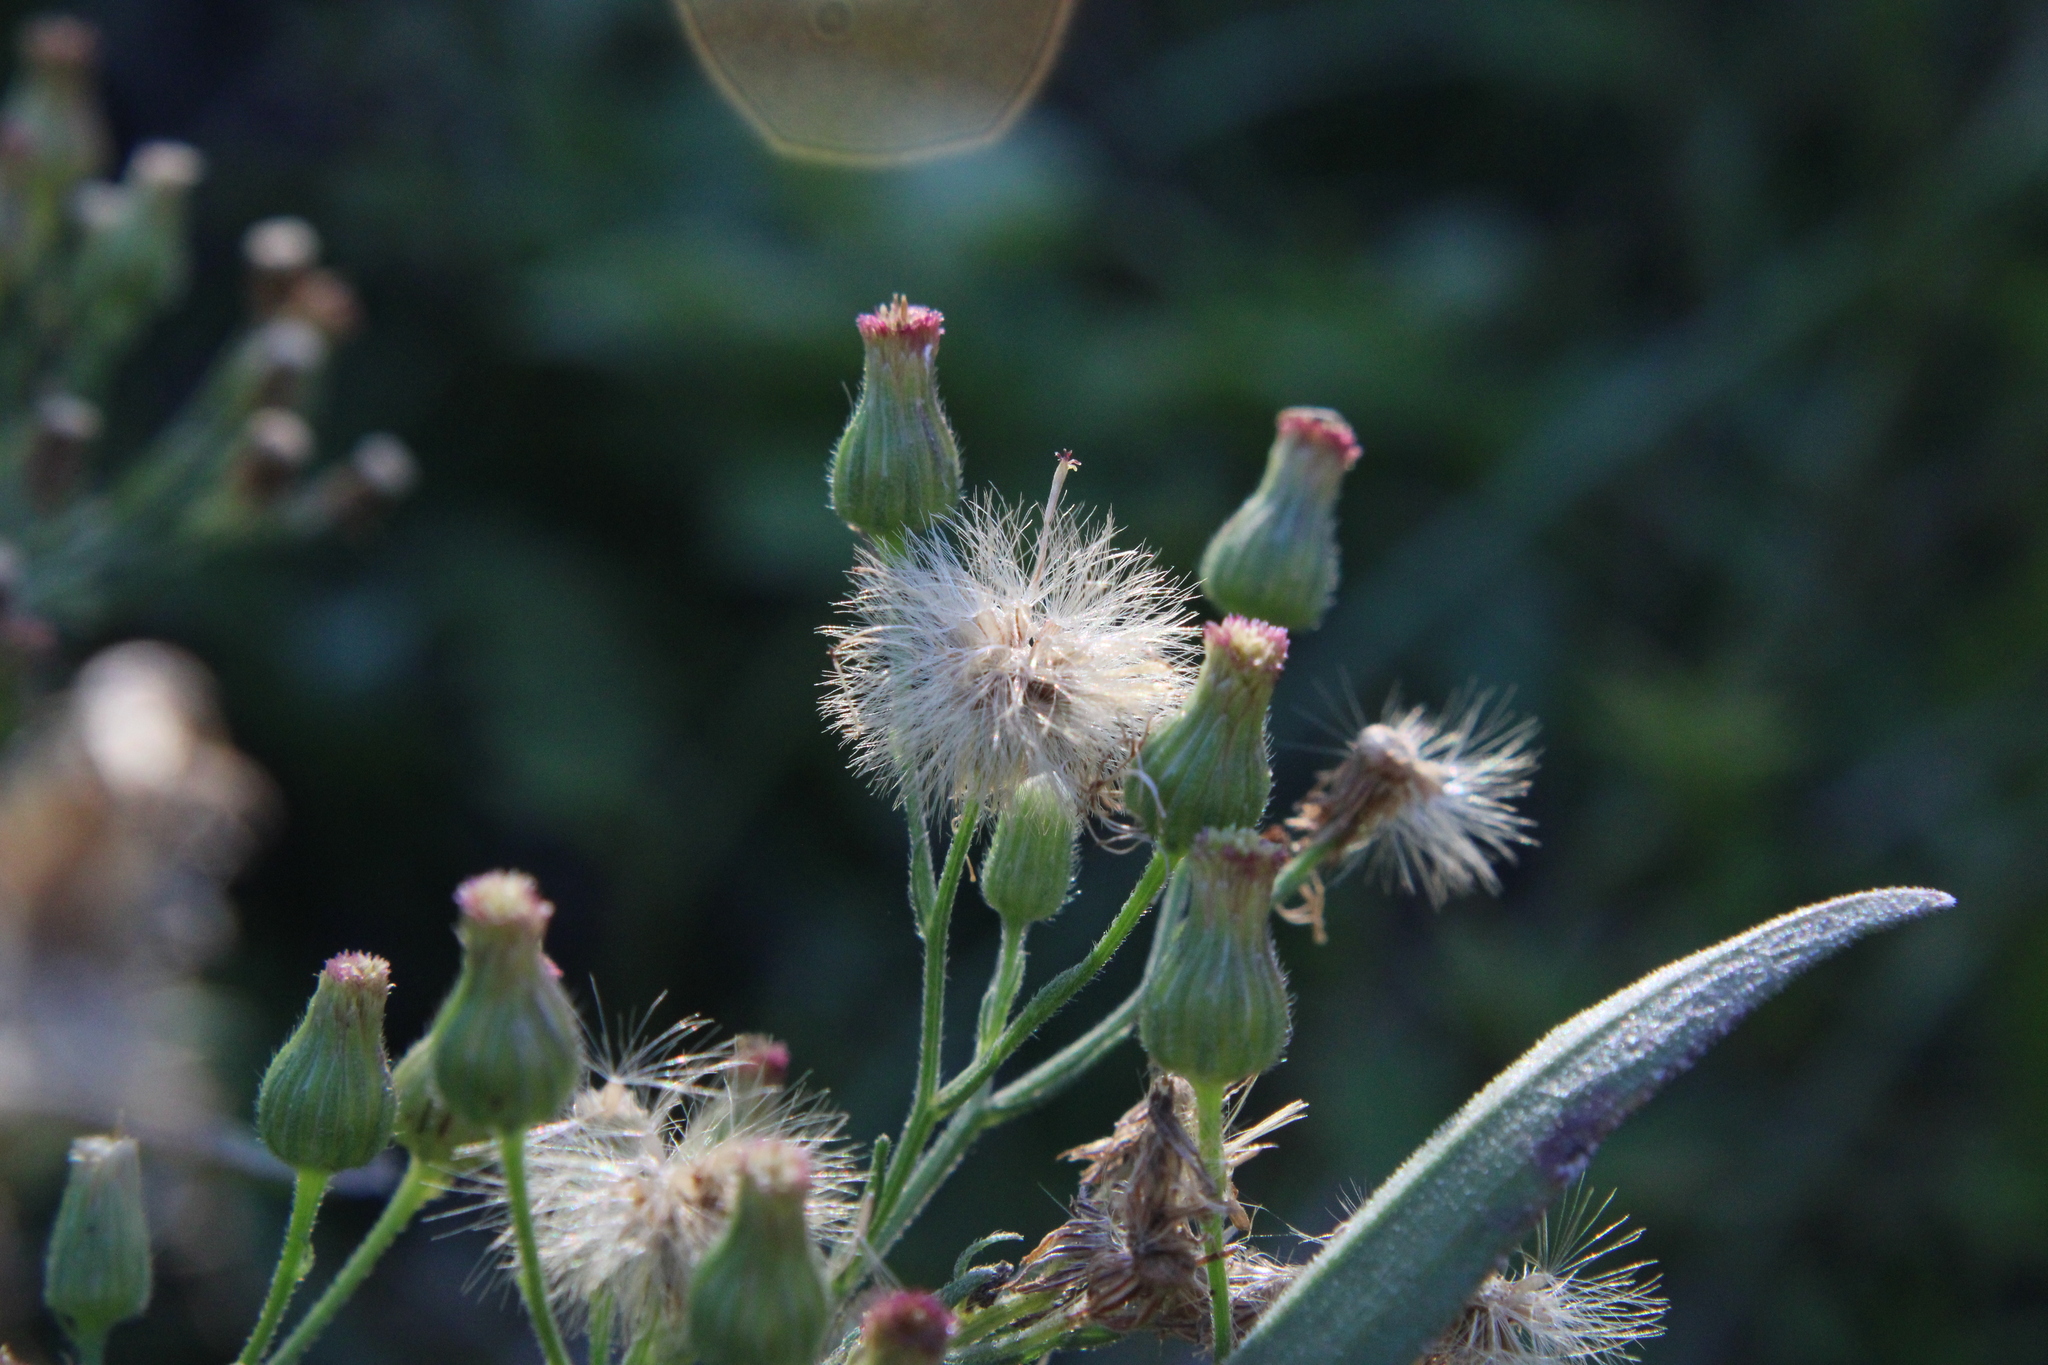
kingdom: Plantae
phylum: Tracheophyta
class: Magnoliopsida
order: Asterales
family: Asteraceae
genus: Erigeron
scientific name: Erigeron bonariensis
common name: Argentine fleabane
